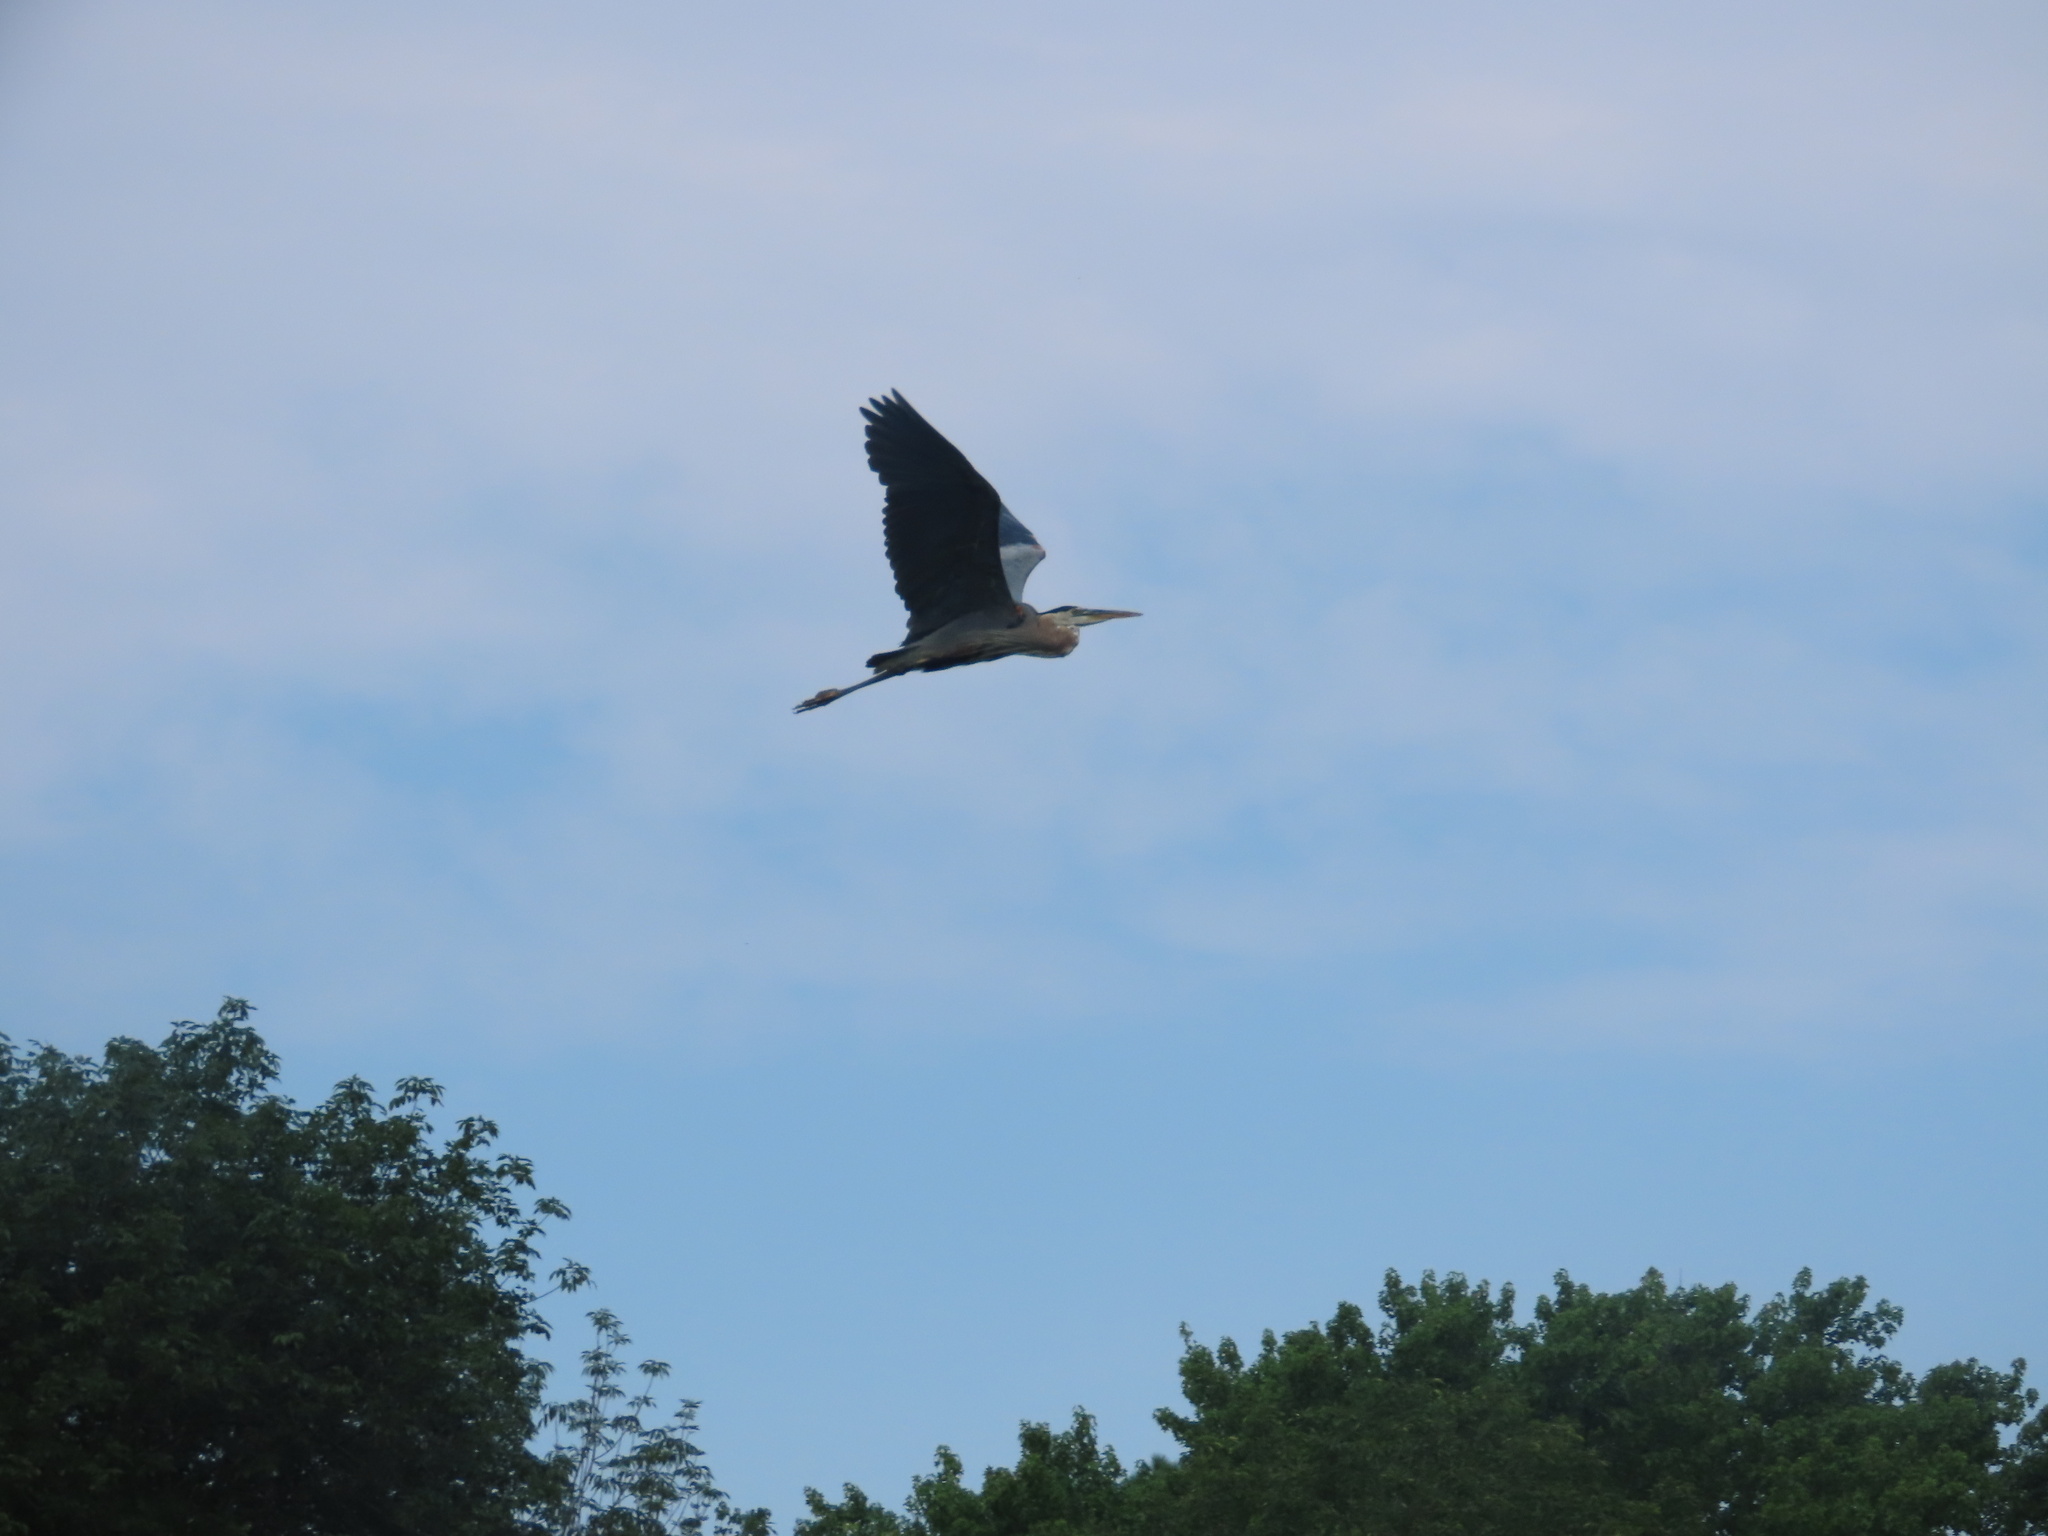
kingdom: Animalia
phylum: Chordata
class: Aves
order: Pelecaniformes
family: Ardeidae
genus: Ardea
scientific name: Ardea herodias
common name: Great blue heron
